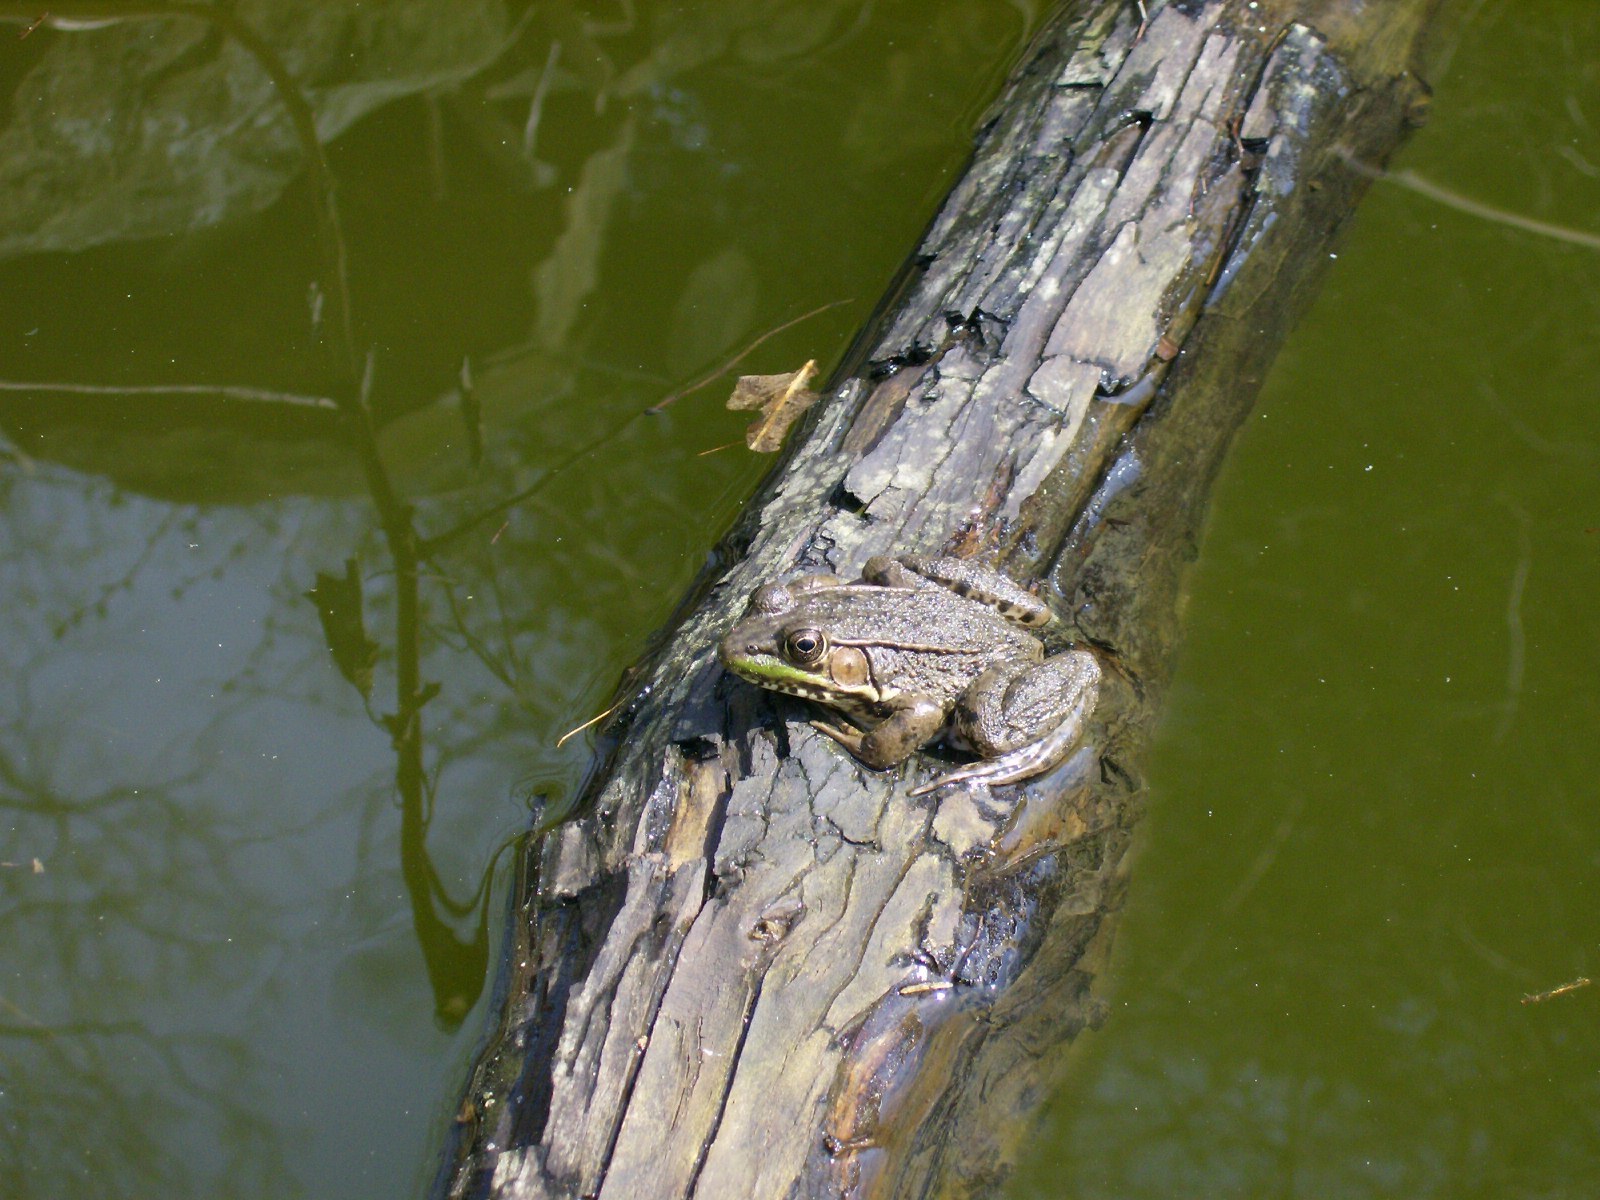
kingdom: Animalia
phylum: Chordata
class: Amphibia
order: Anura
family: Ranidae
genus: Lithobates
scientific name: Lithobates clamitans
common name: Green frog
